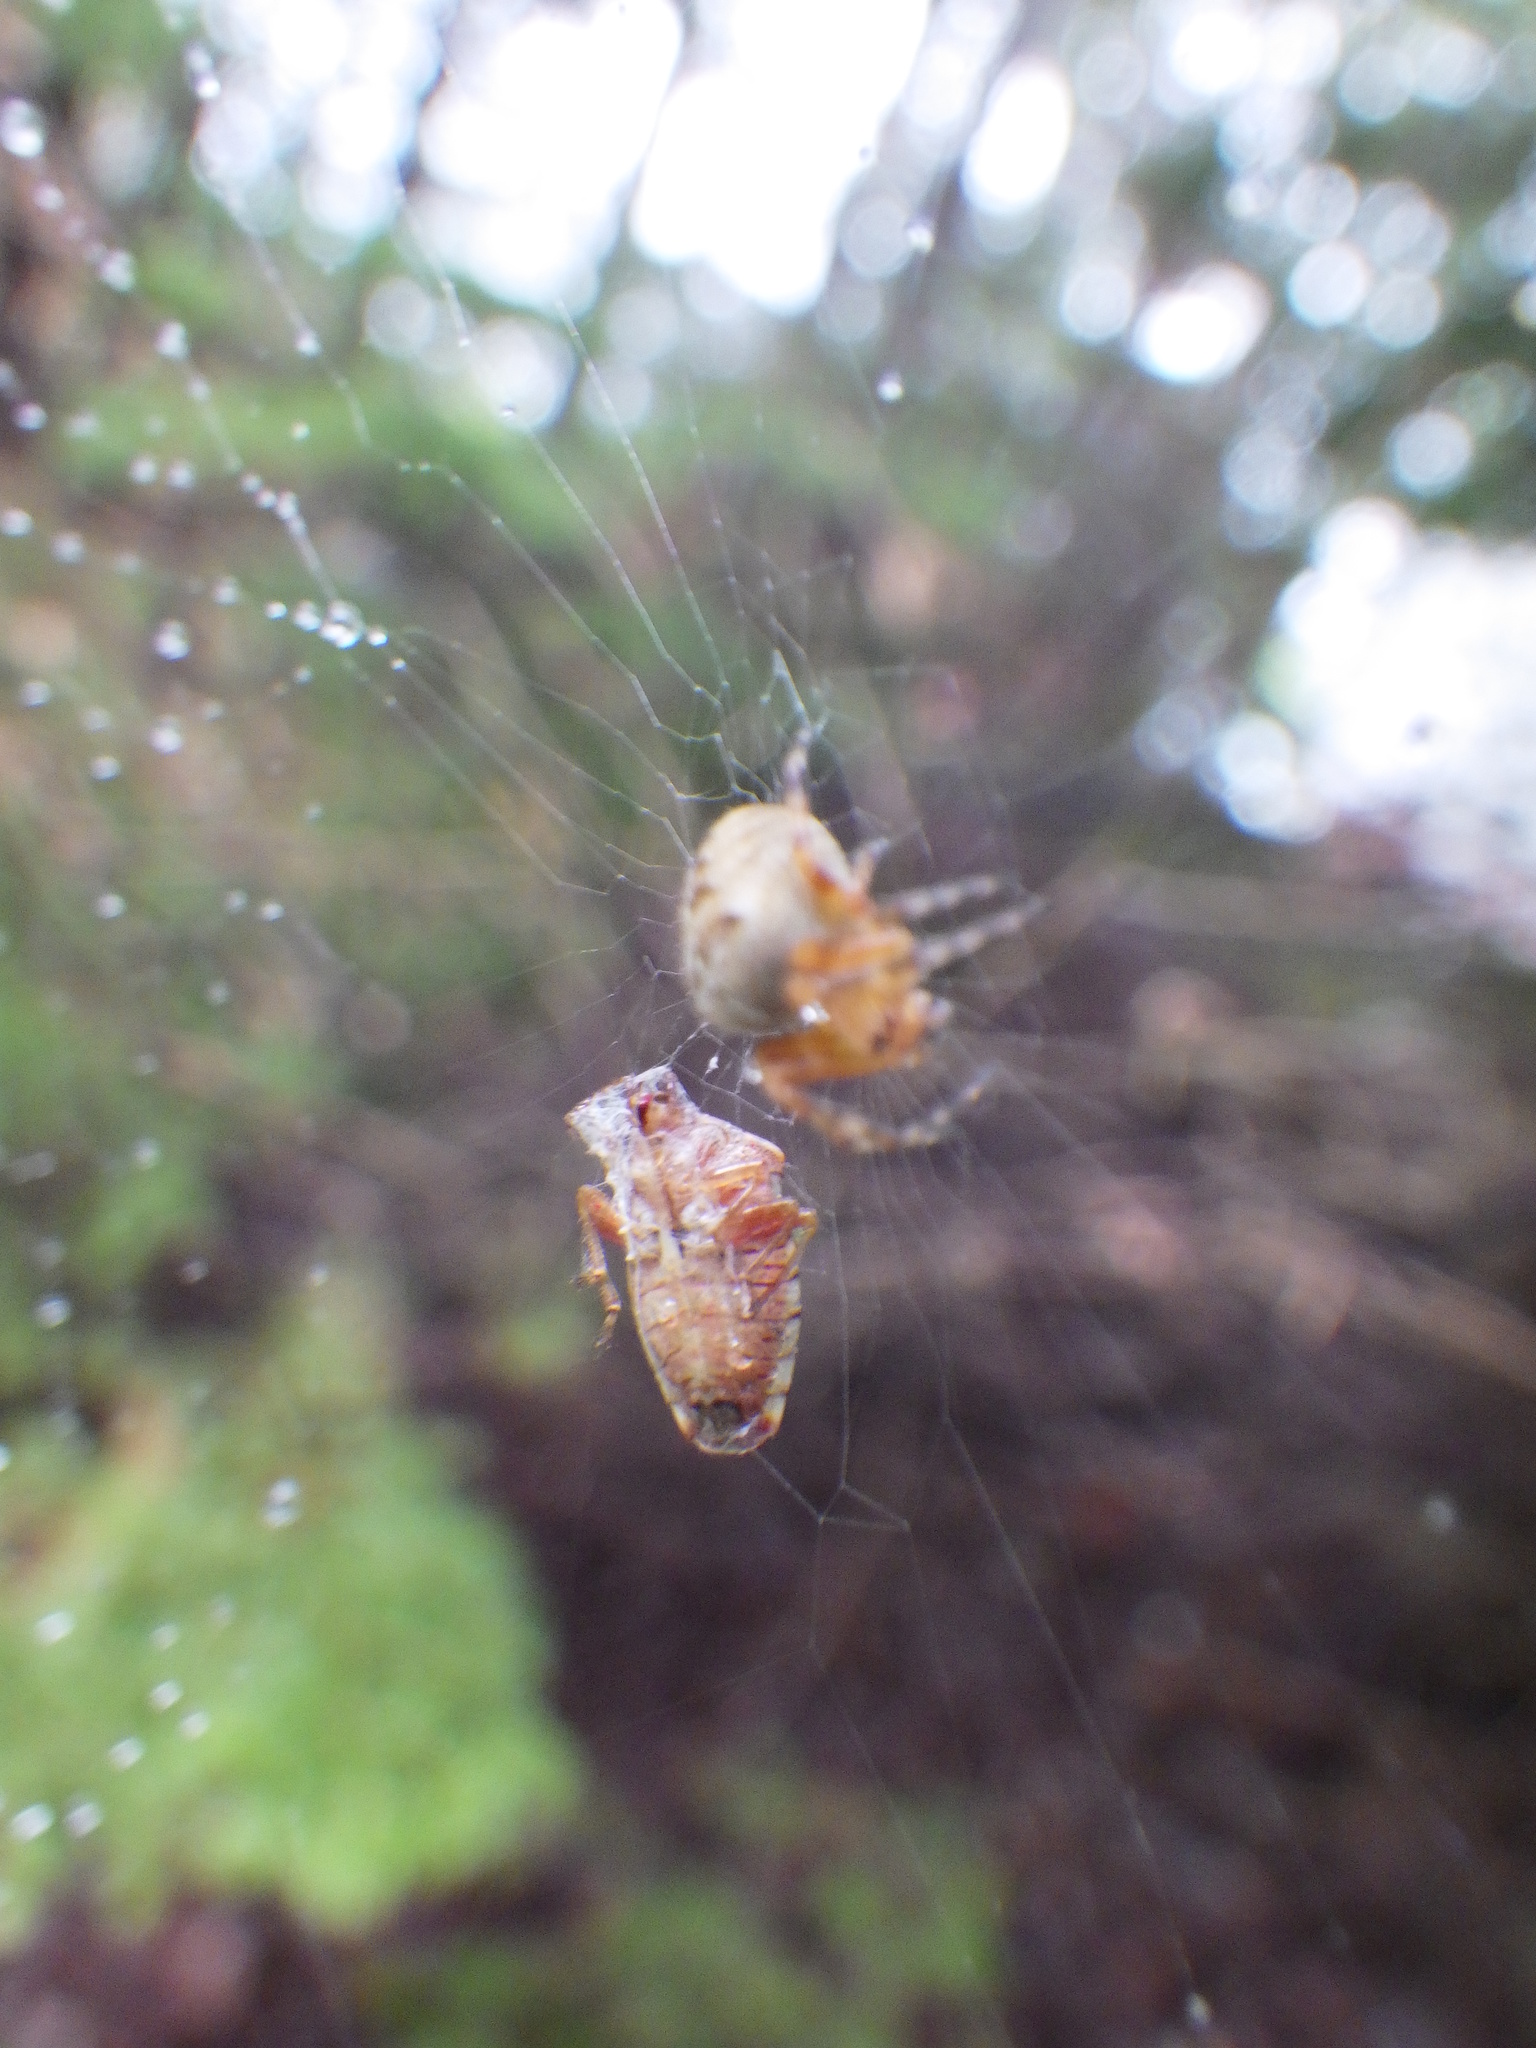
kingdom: Animalia
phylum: Arthropoda
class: Arachnida
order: Araneae
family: Araneidae
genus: Araneus
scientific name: Araneus diadematus
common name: Cross orbweaver
